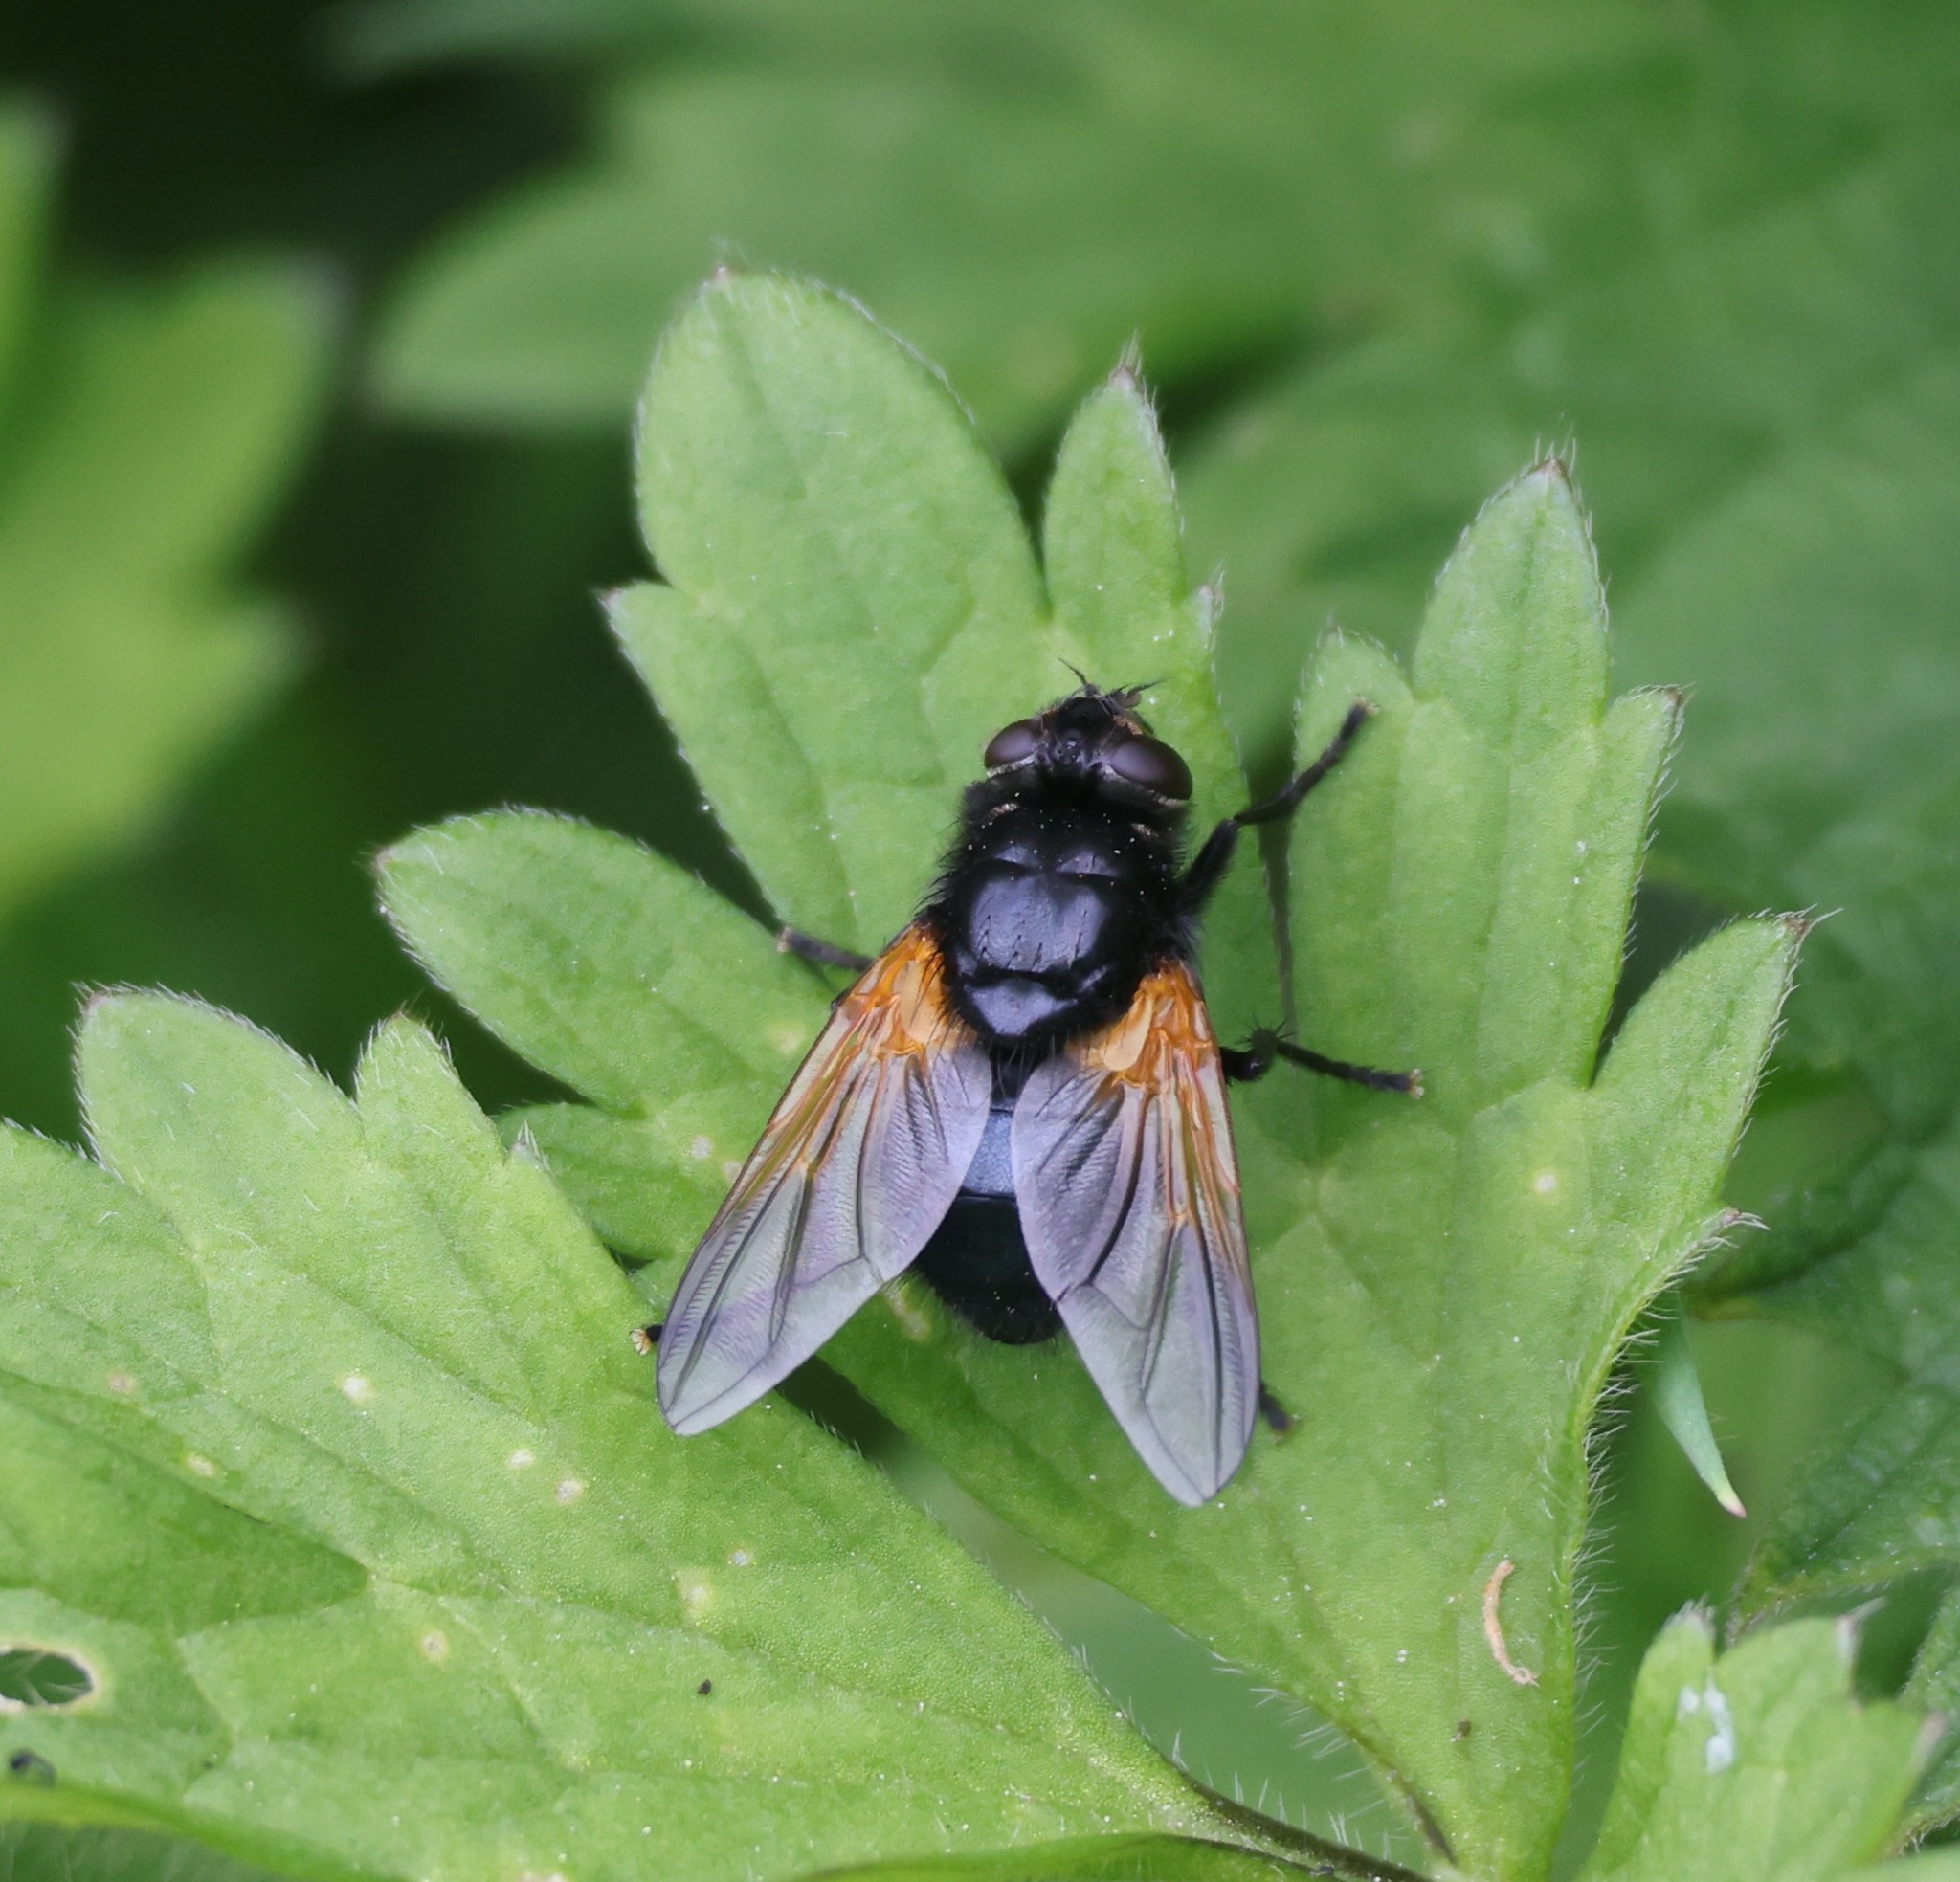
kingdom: Animalia
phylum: Arthropoda
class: Insecta
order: Diptera
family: Muscidae
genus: Mesembrina
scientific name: Mesembrina meridiana
